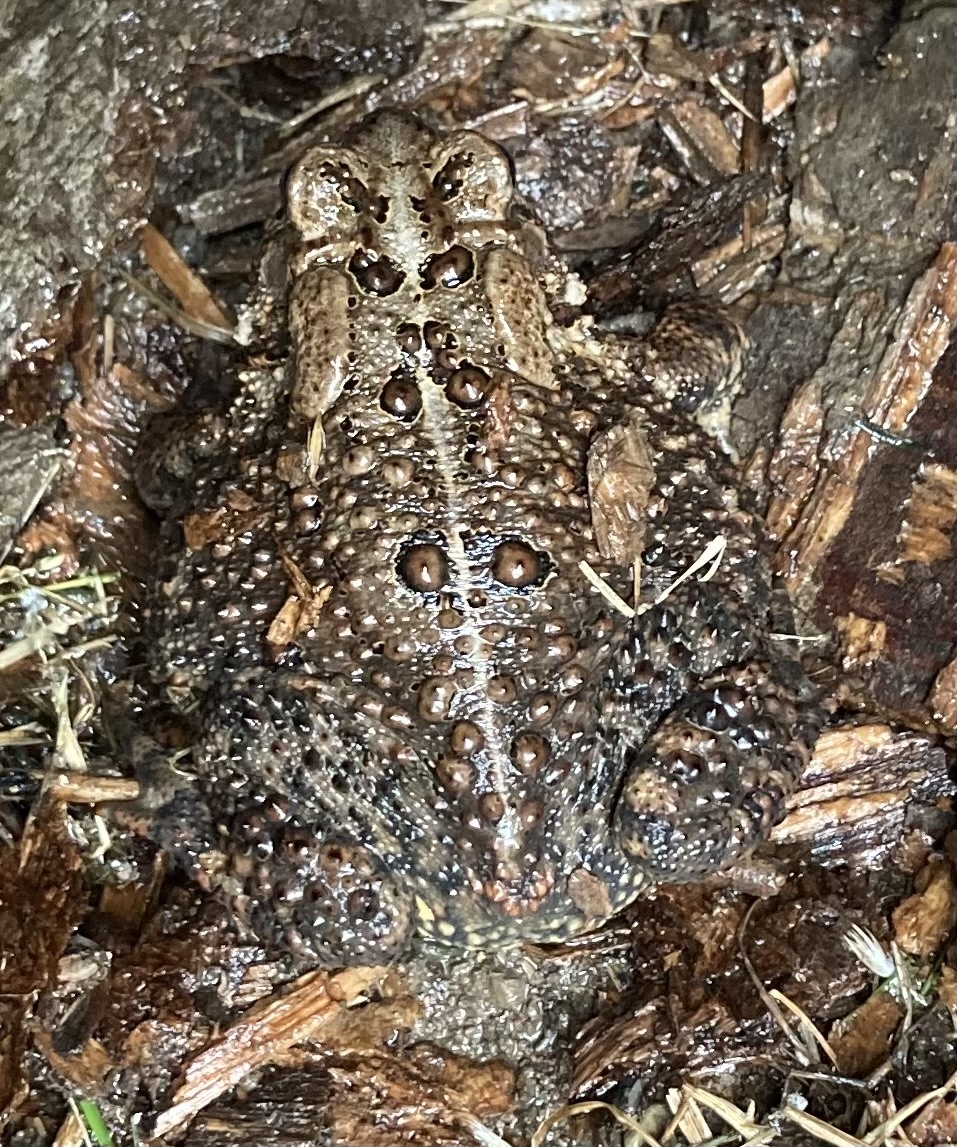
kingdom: Animalia
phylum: Chordata
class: Amphibia
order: Anura
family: Bufonidae
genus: Anaxyrus
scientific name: Anaxyrus americanus
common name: American toad
